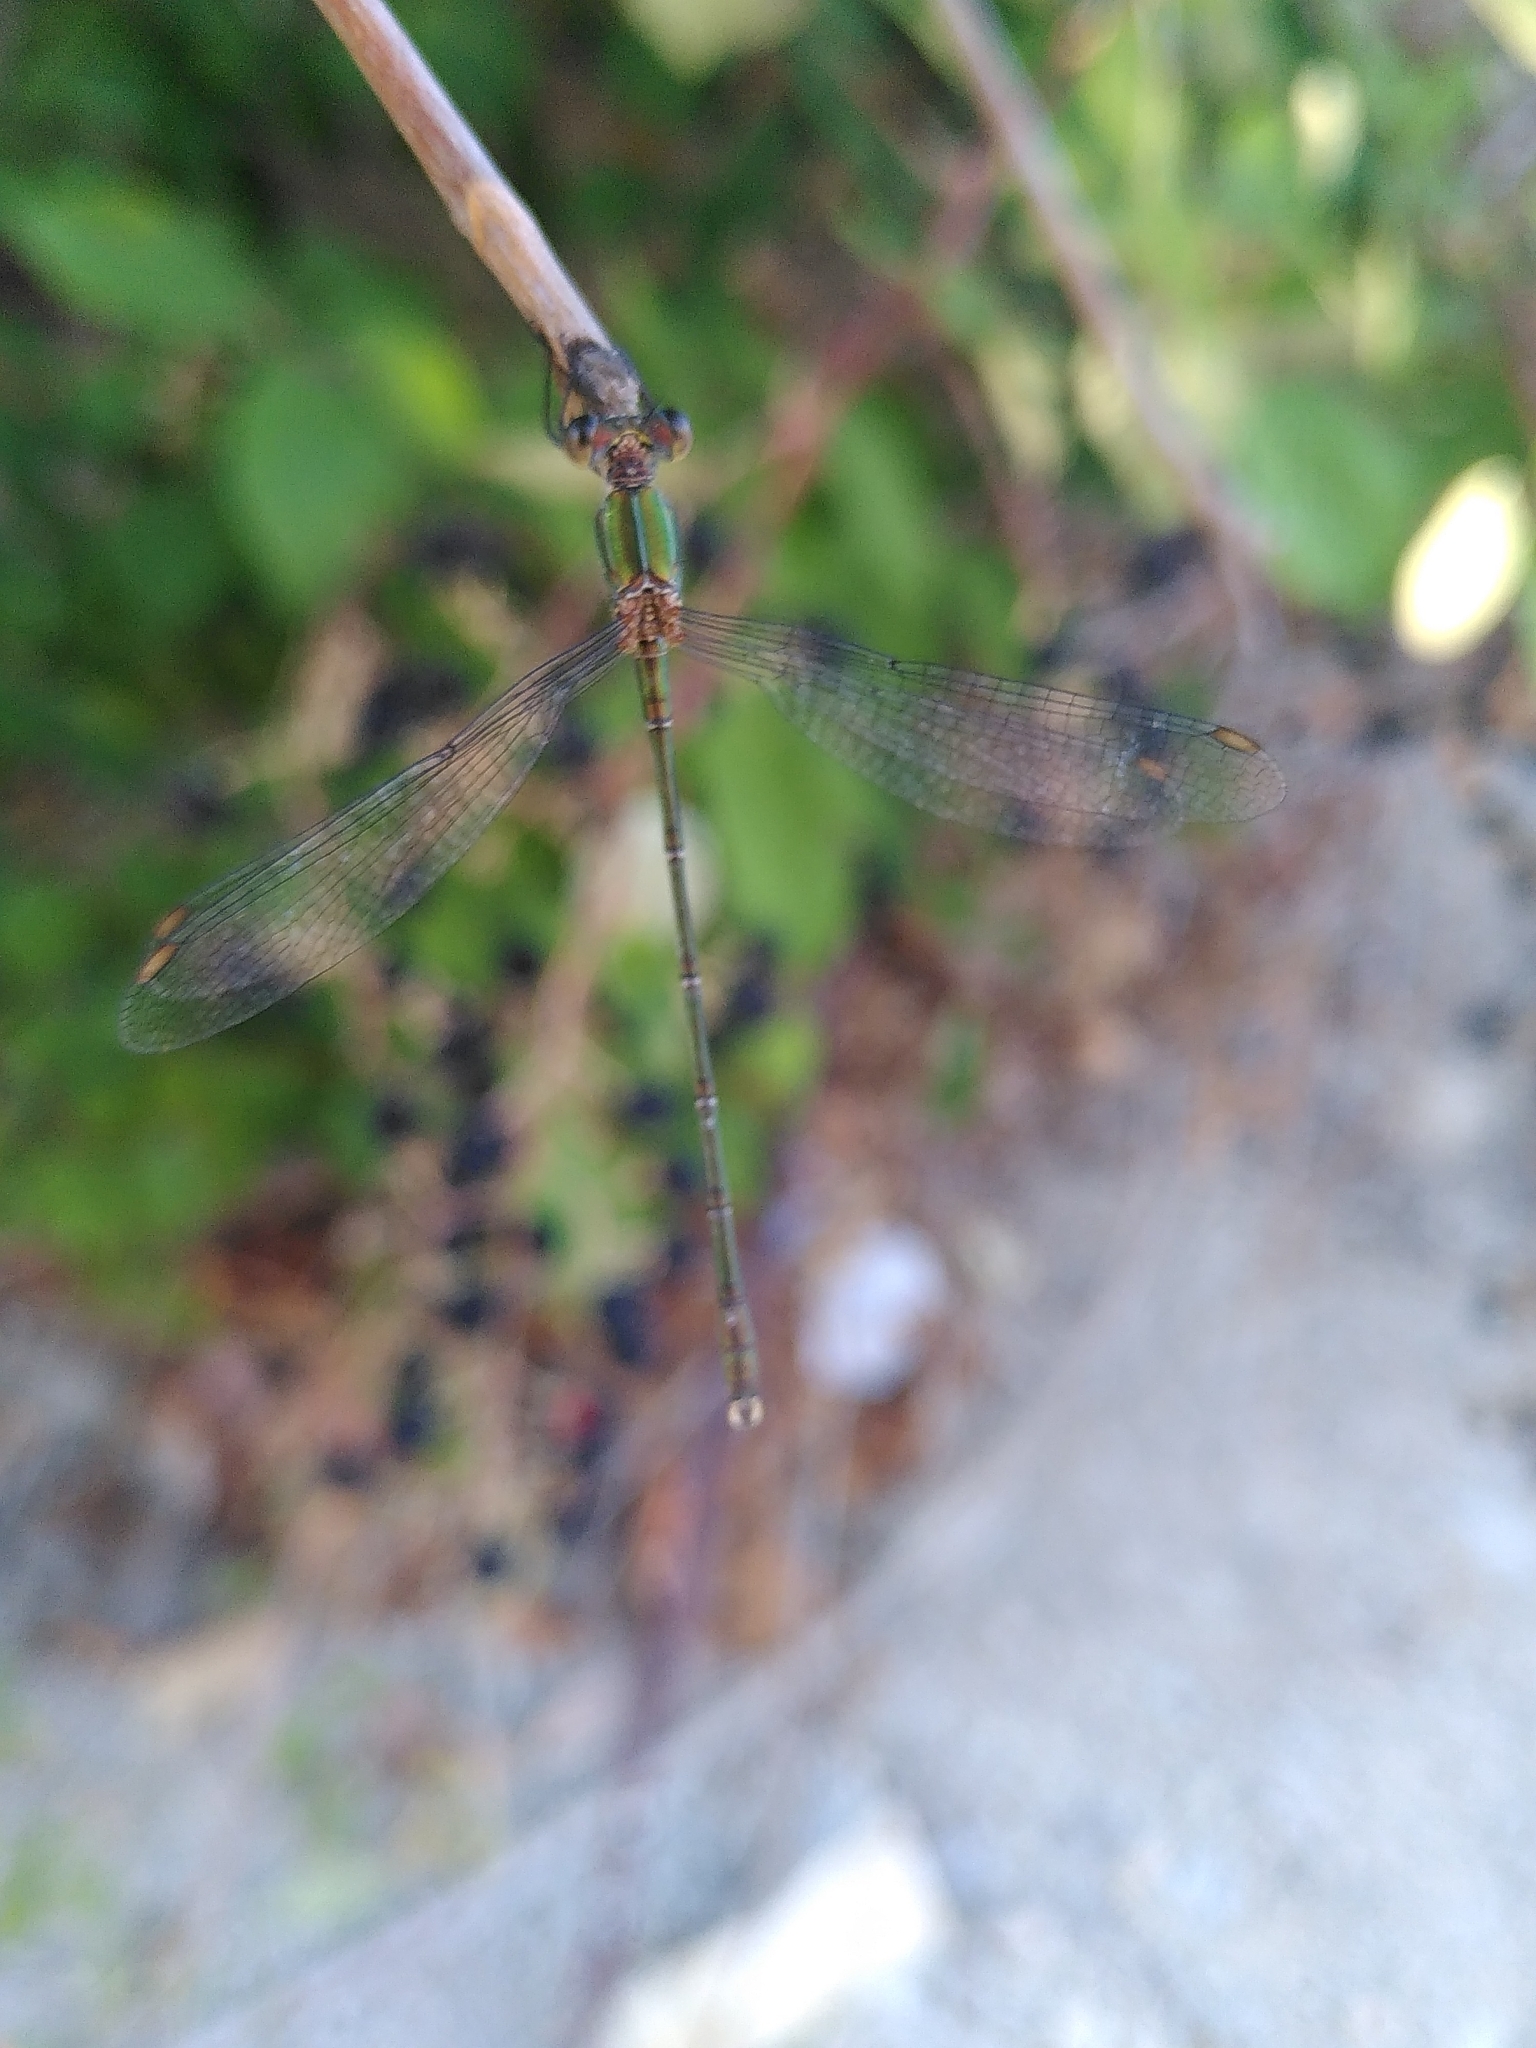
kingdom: Animalia
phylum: Arthropoda
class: Insecta
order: Odonata
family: Lestidae
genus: Chalcolestes
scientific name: Chalcolestes viridis
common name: Green emerald damselfly
